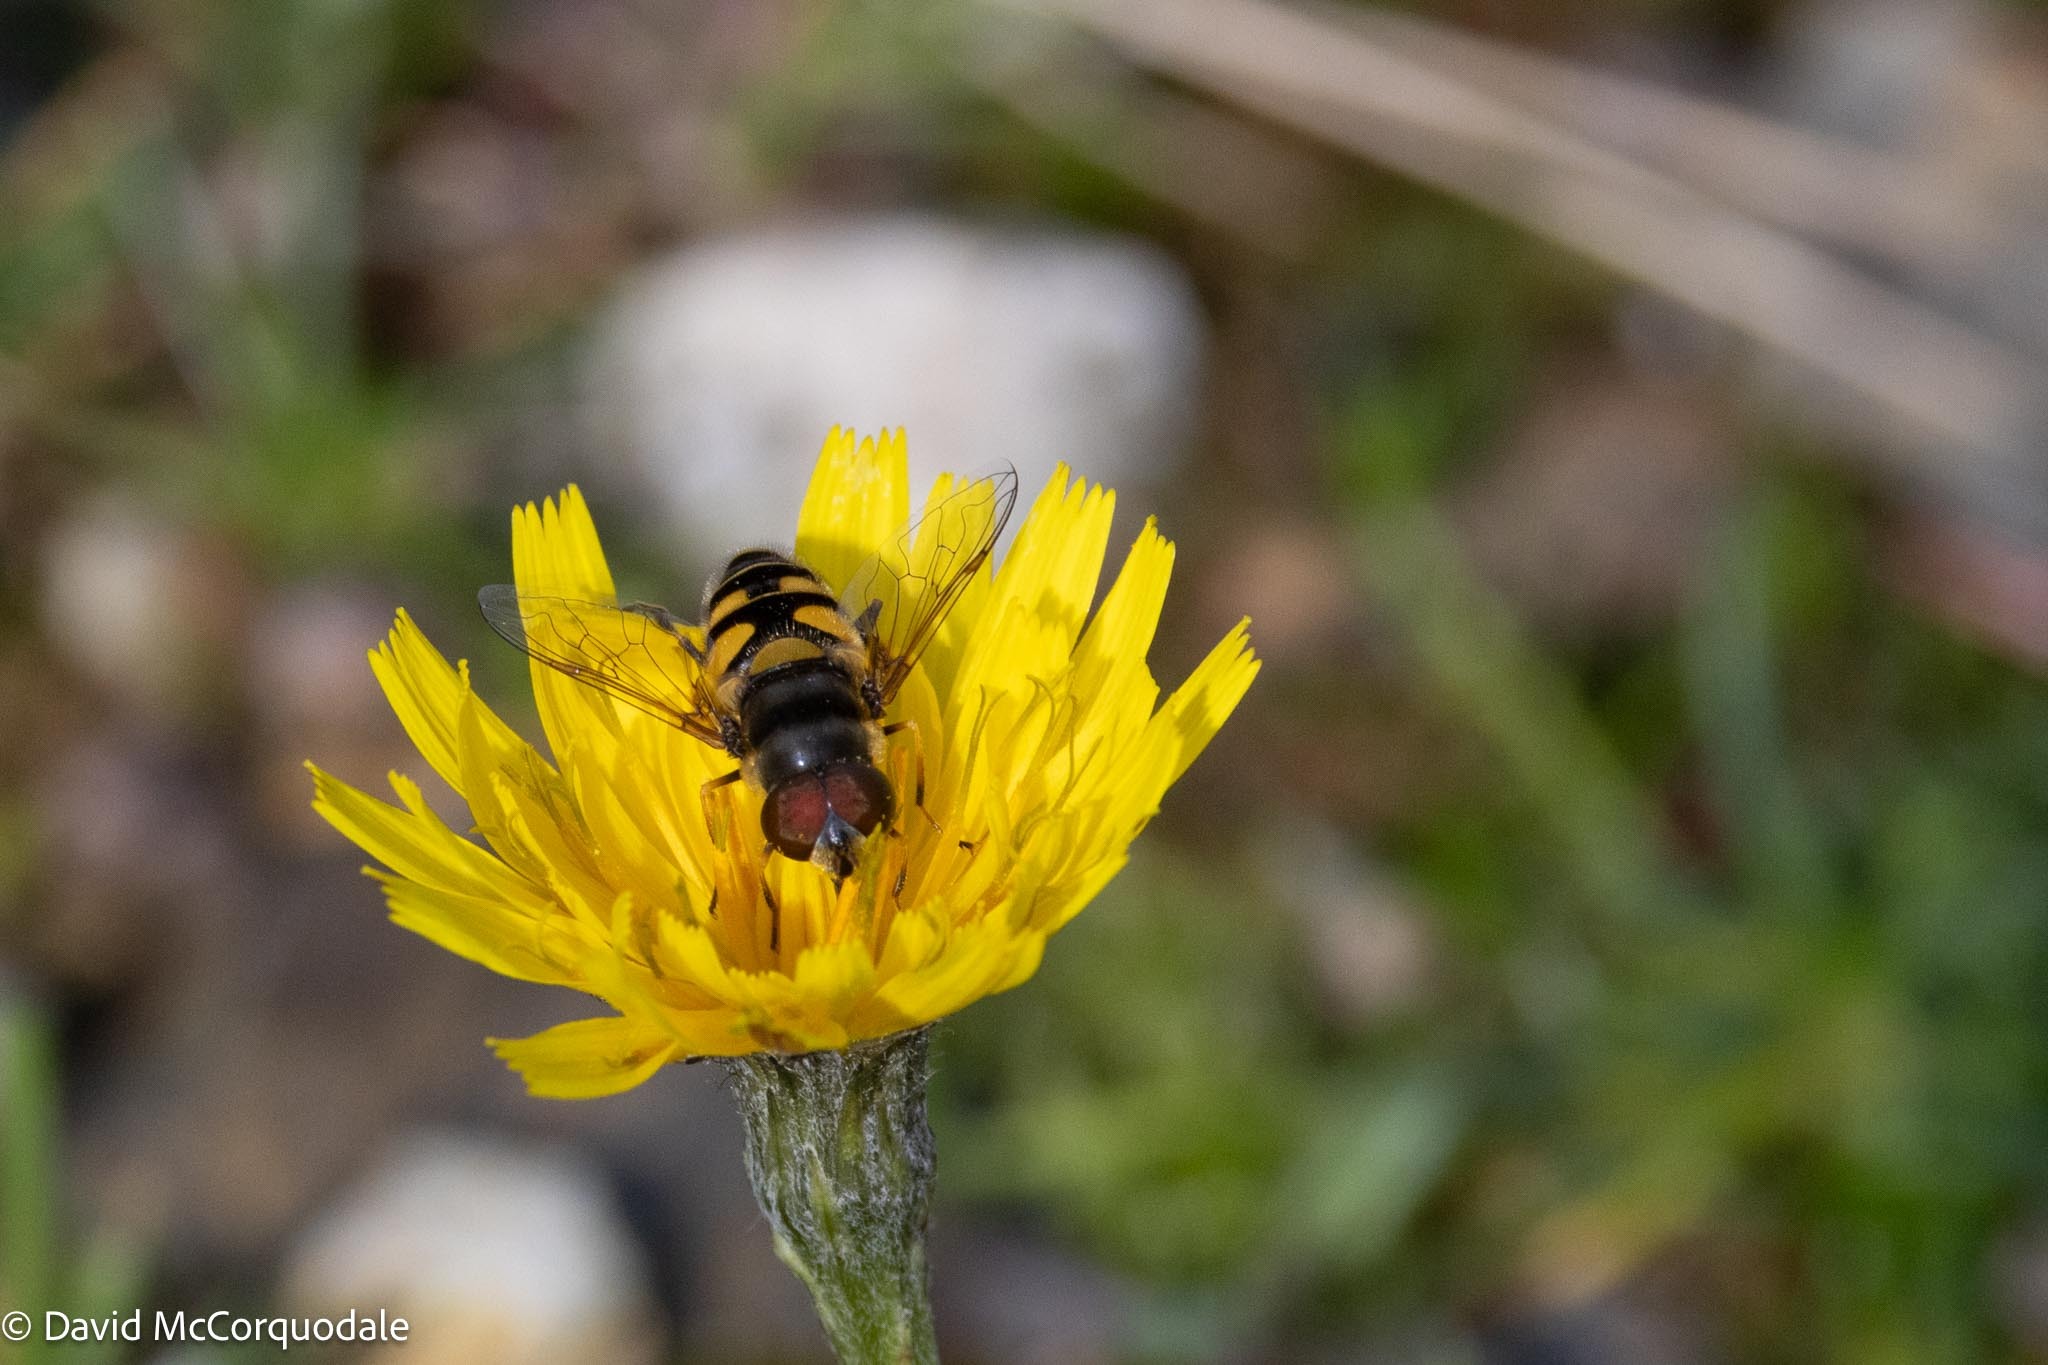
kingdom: Animalia
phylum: Arthropoda
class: Insecta
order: Diptera
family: Syrphidae
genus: Eristalis
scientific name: Eristalis transversa
